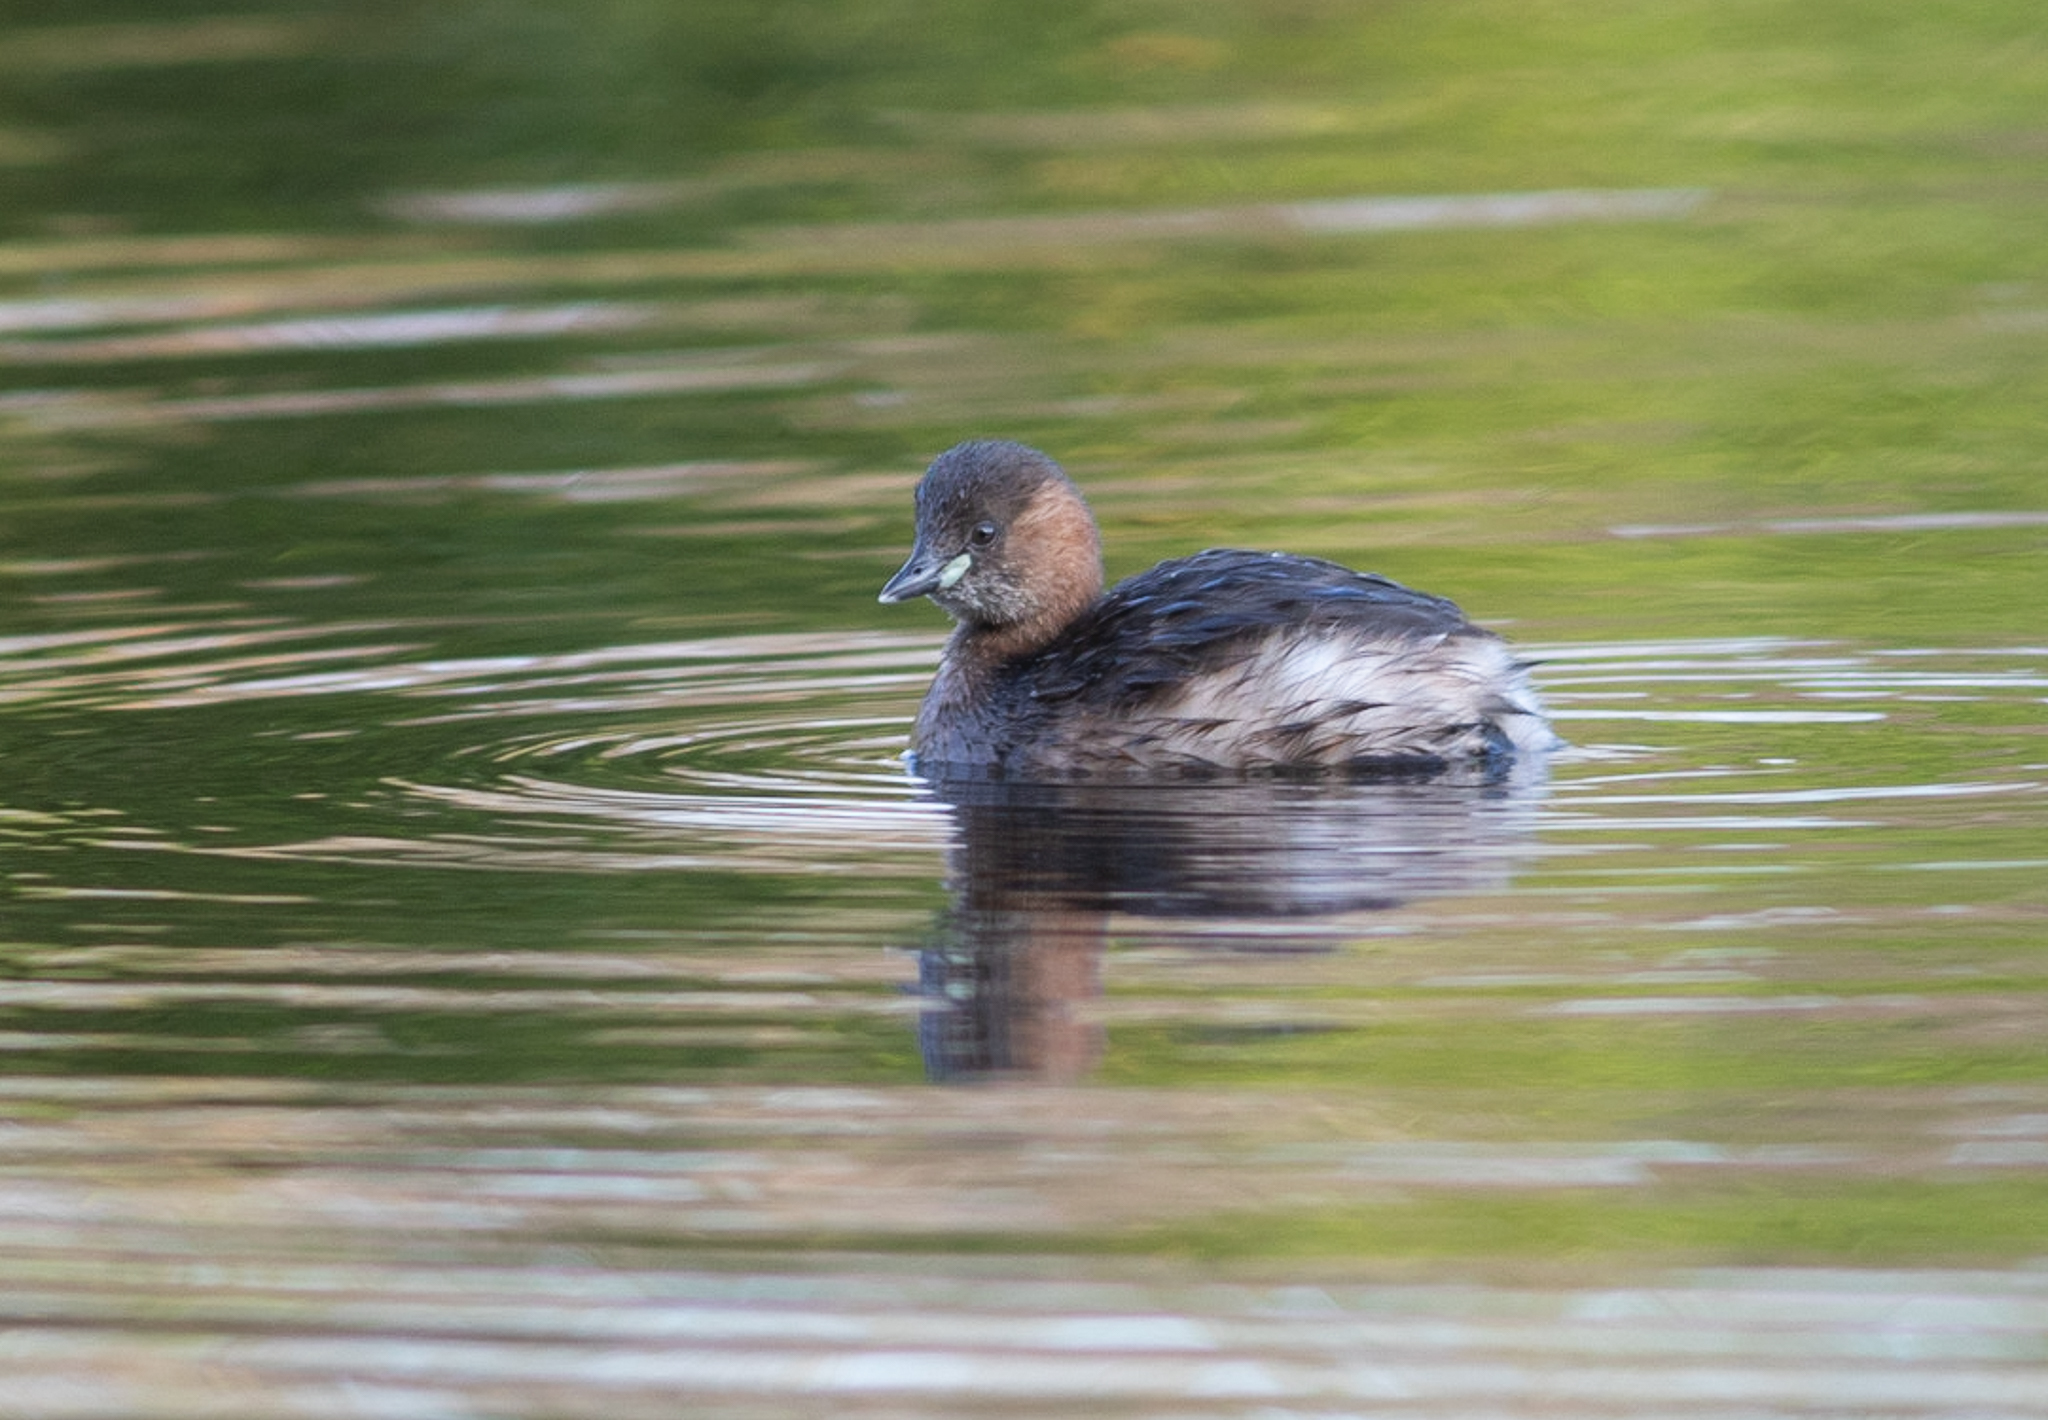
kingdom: Animalia
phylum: Chordata
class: Aves
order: Podicipediformes
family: Podicipedidae
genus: Tachybaptus
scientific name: Tachybaptus ruficollis
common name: Little grebe
